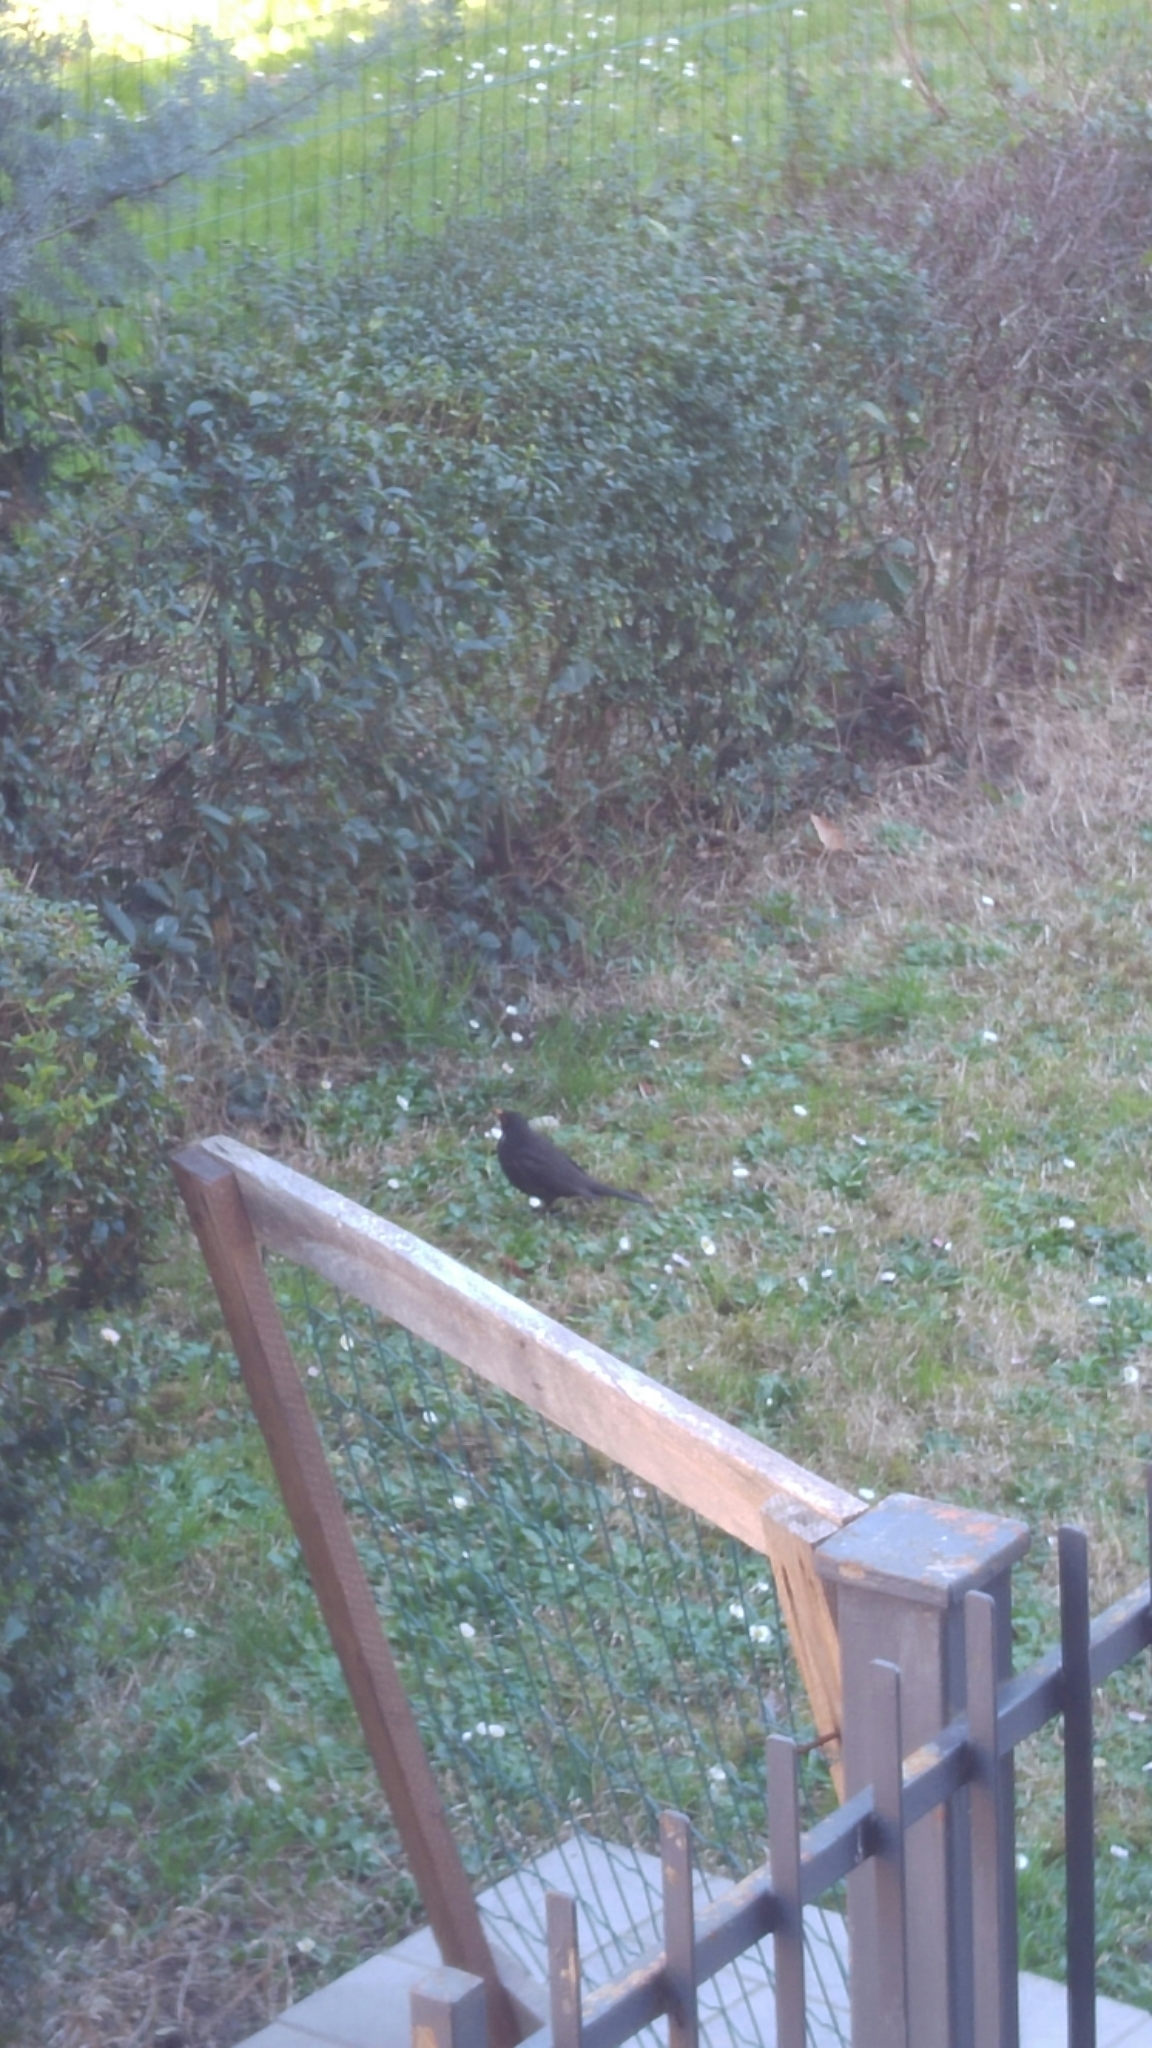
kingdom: Animalia
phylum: Chordata
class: Aves
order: Passeriformes
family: Turdidae
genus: Turdus
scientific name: Turdus merula
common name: Common blackbird
